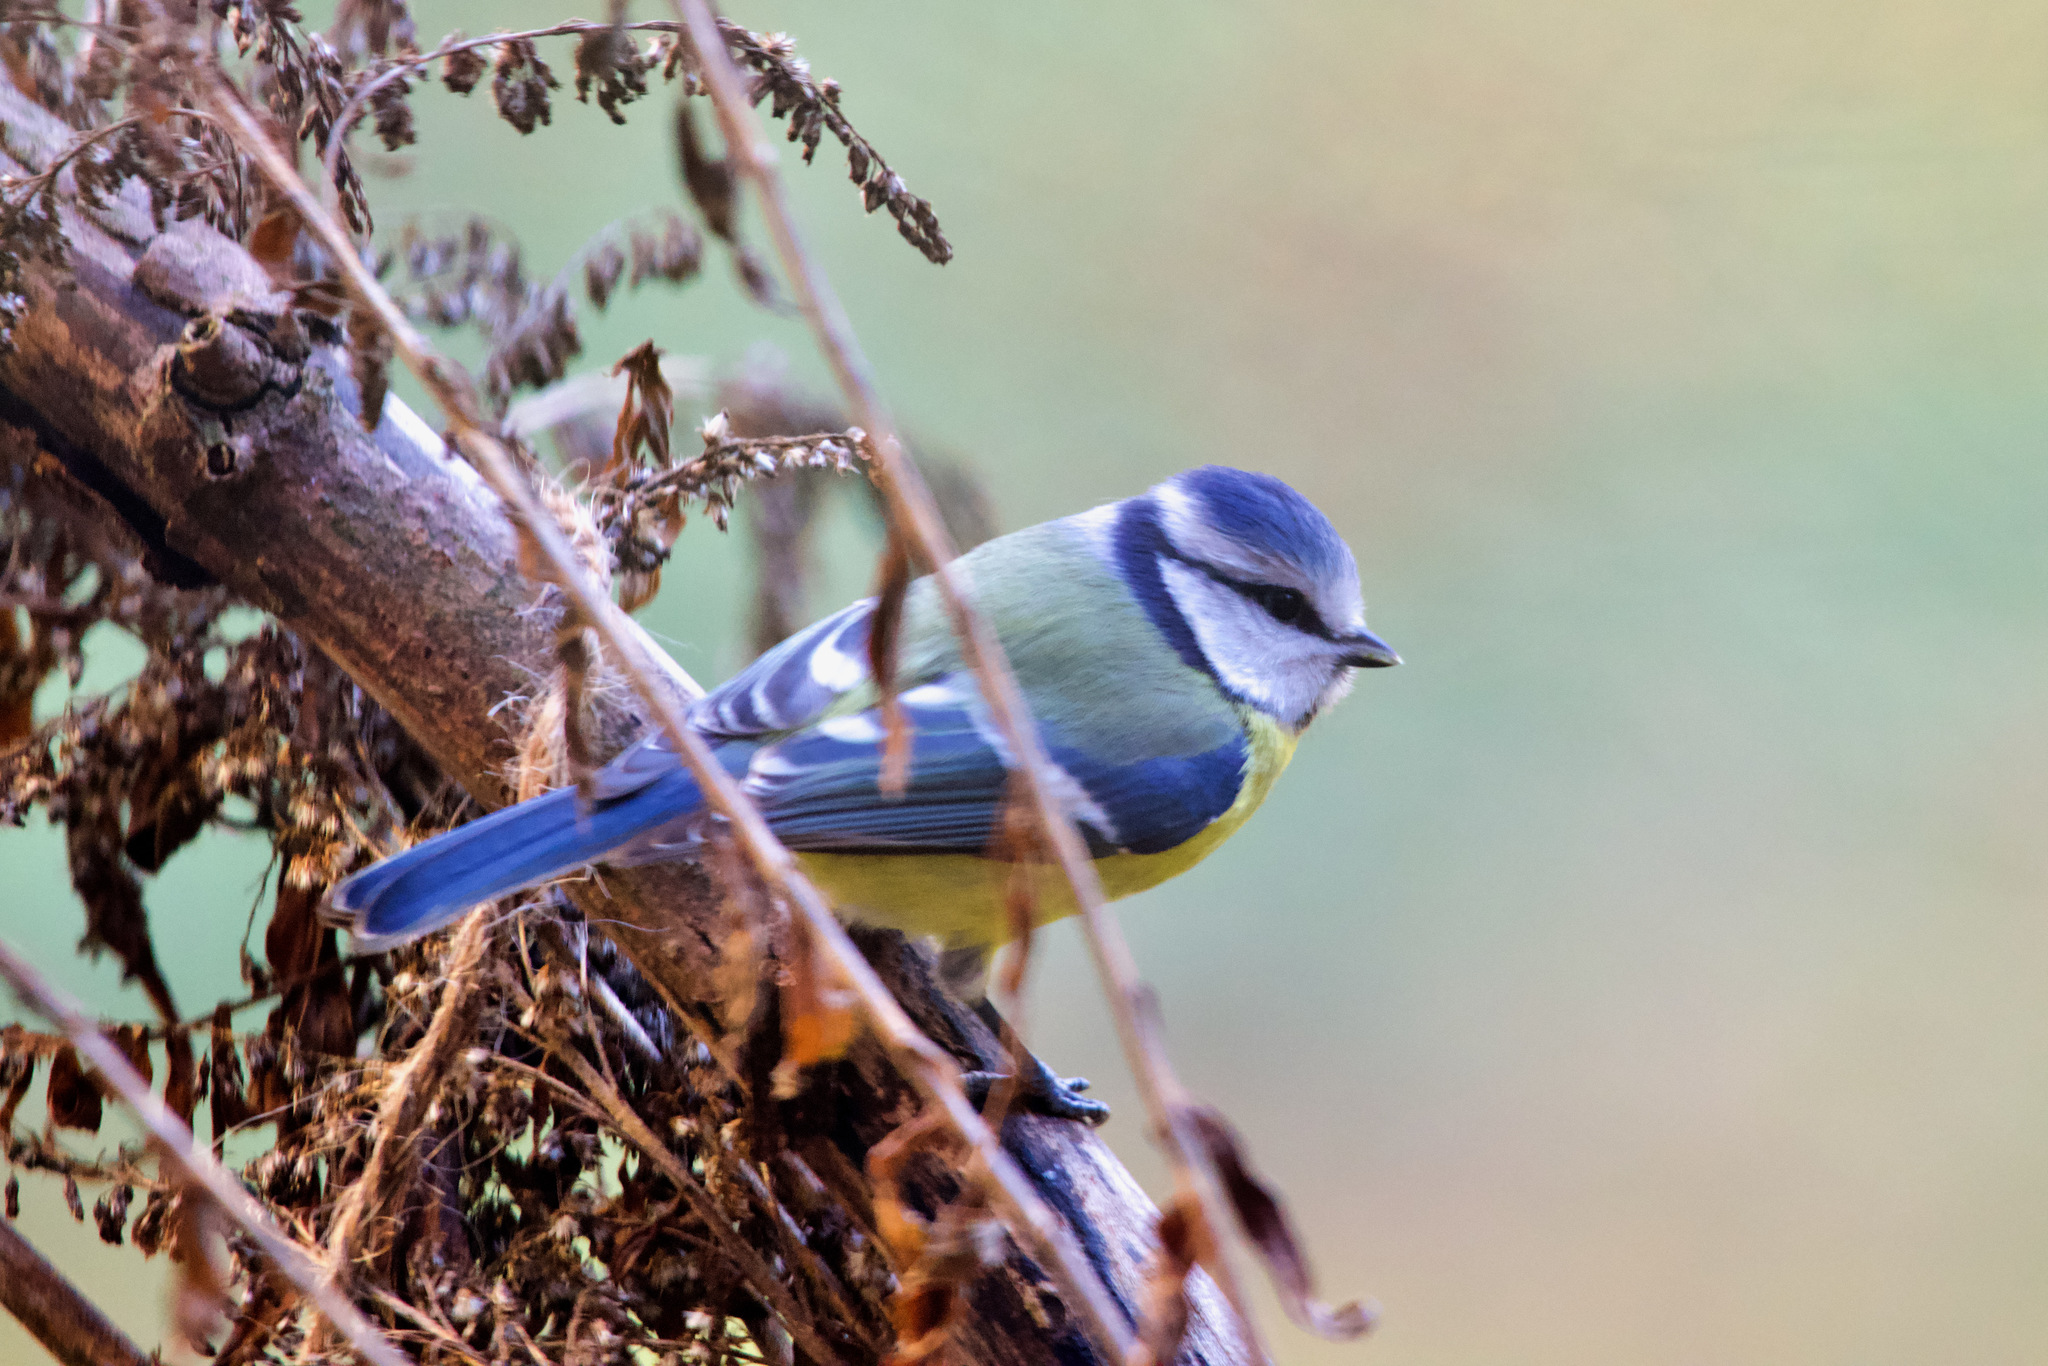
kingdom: Animalia
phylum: Chordata
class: Aves
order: Passeriformes
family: Paridae
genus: Cyanistes
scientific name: Cyanistes caeruleus
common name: Eurasian blue tit
